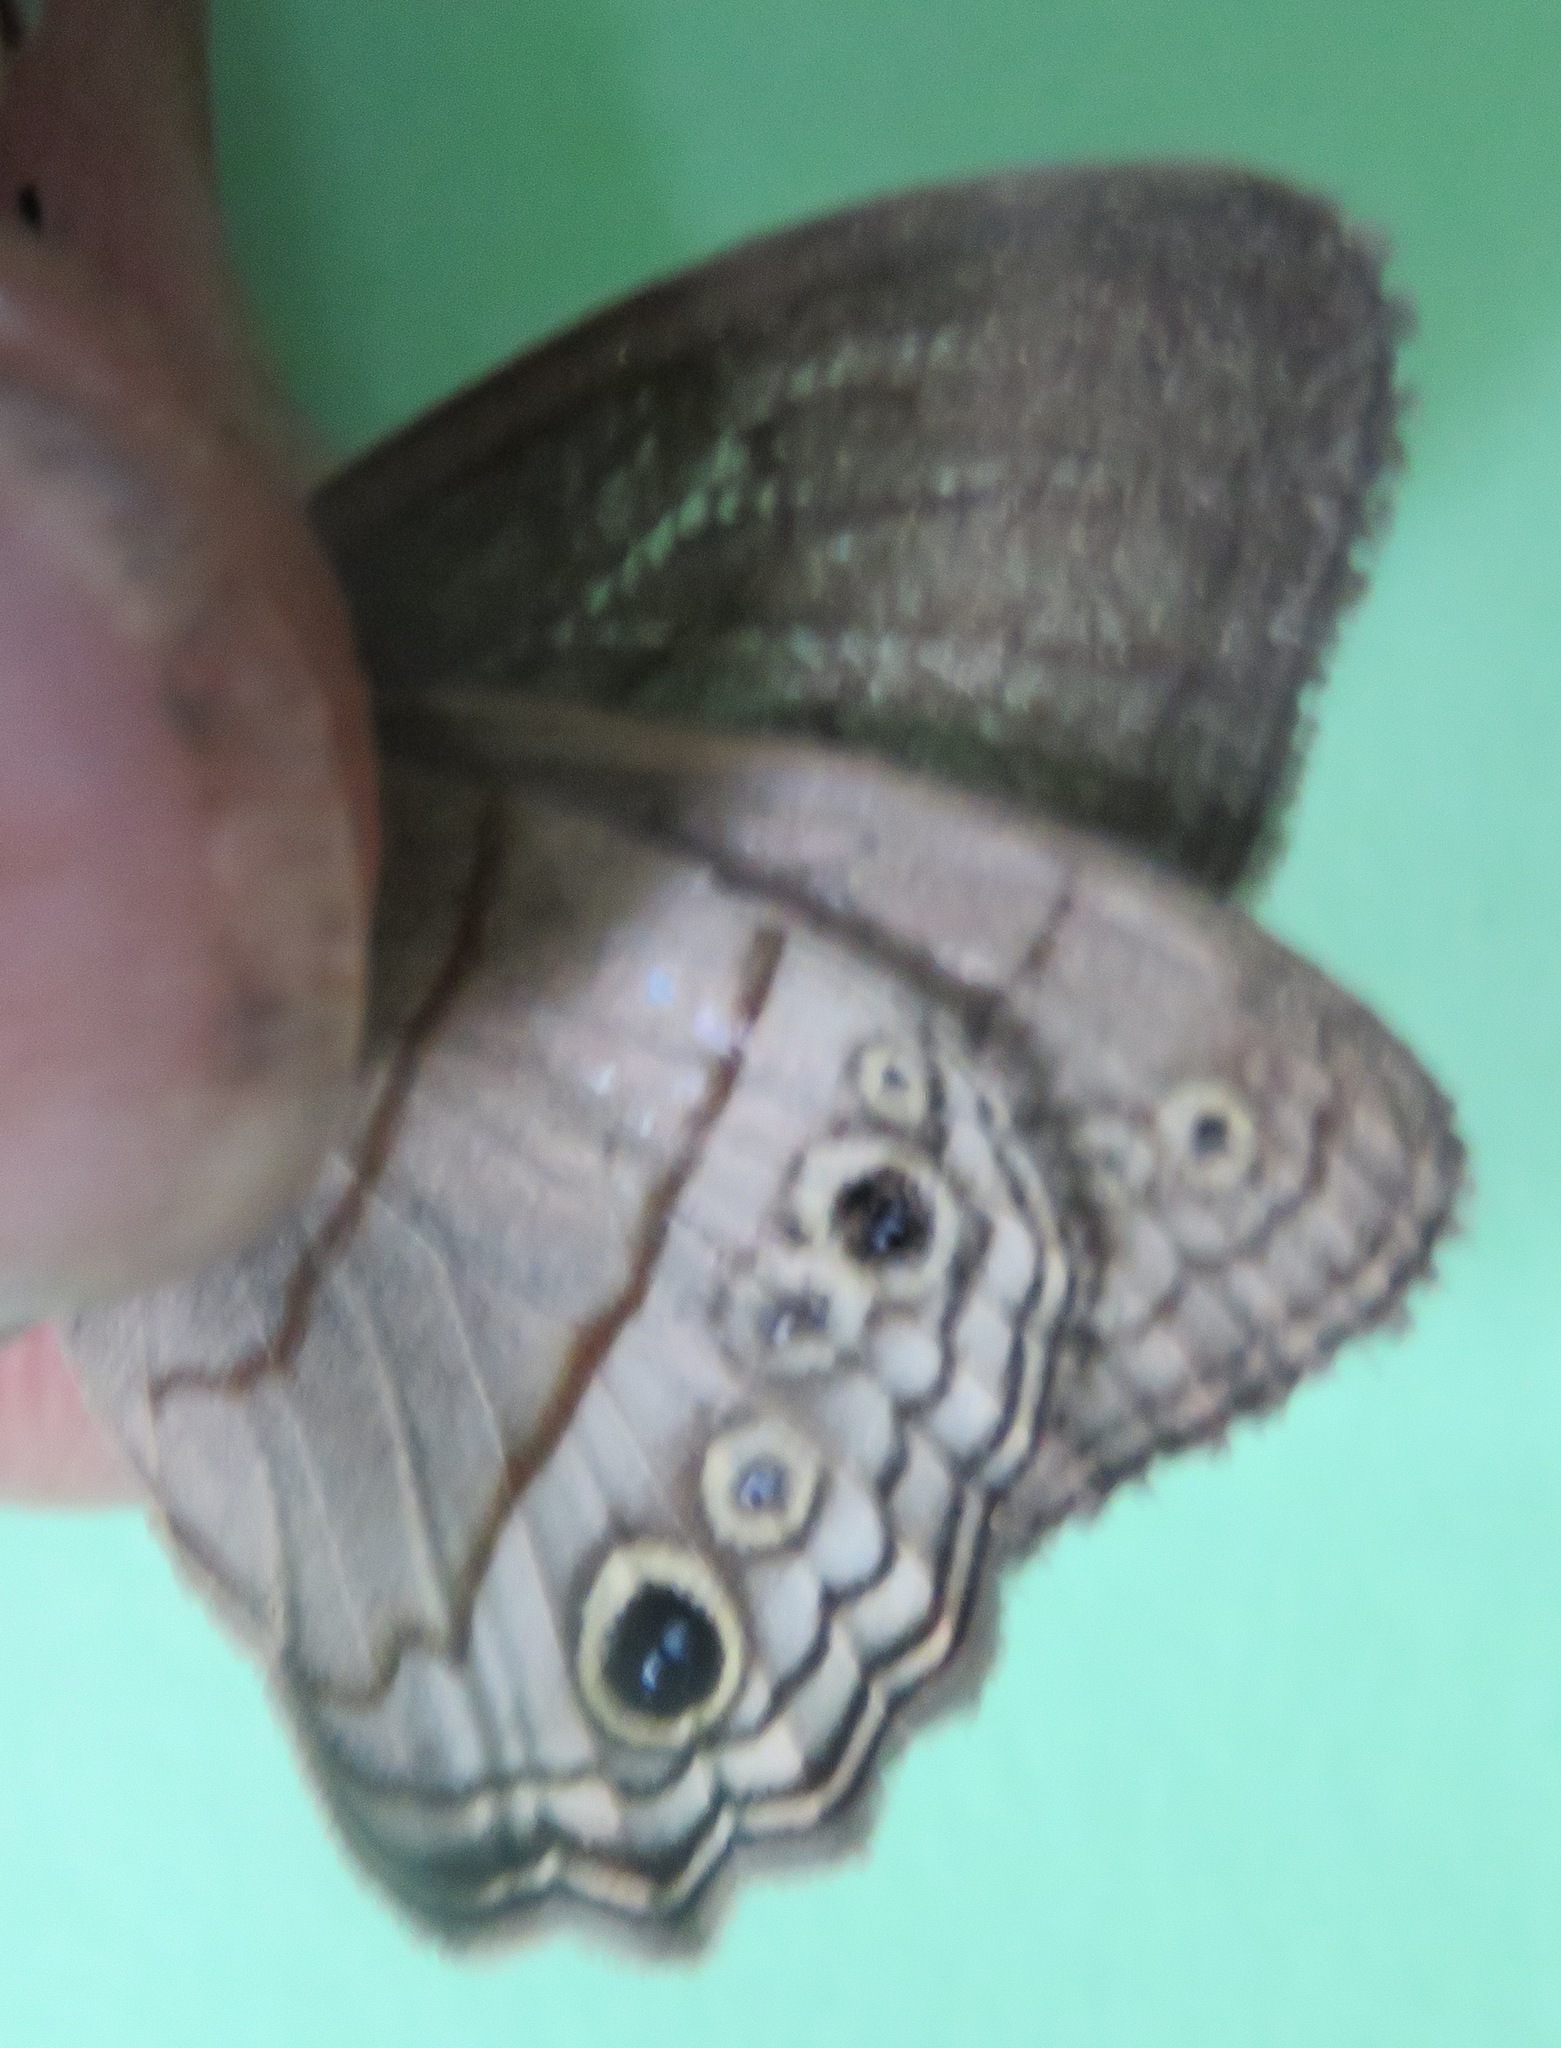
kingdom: Animalia
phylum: Arthropoda
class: Insecta
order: Lepidoptera
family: Nymphalidae
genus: Vareuptychia
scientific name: Vareuptychia similis
